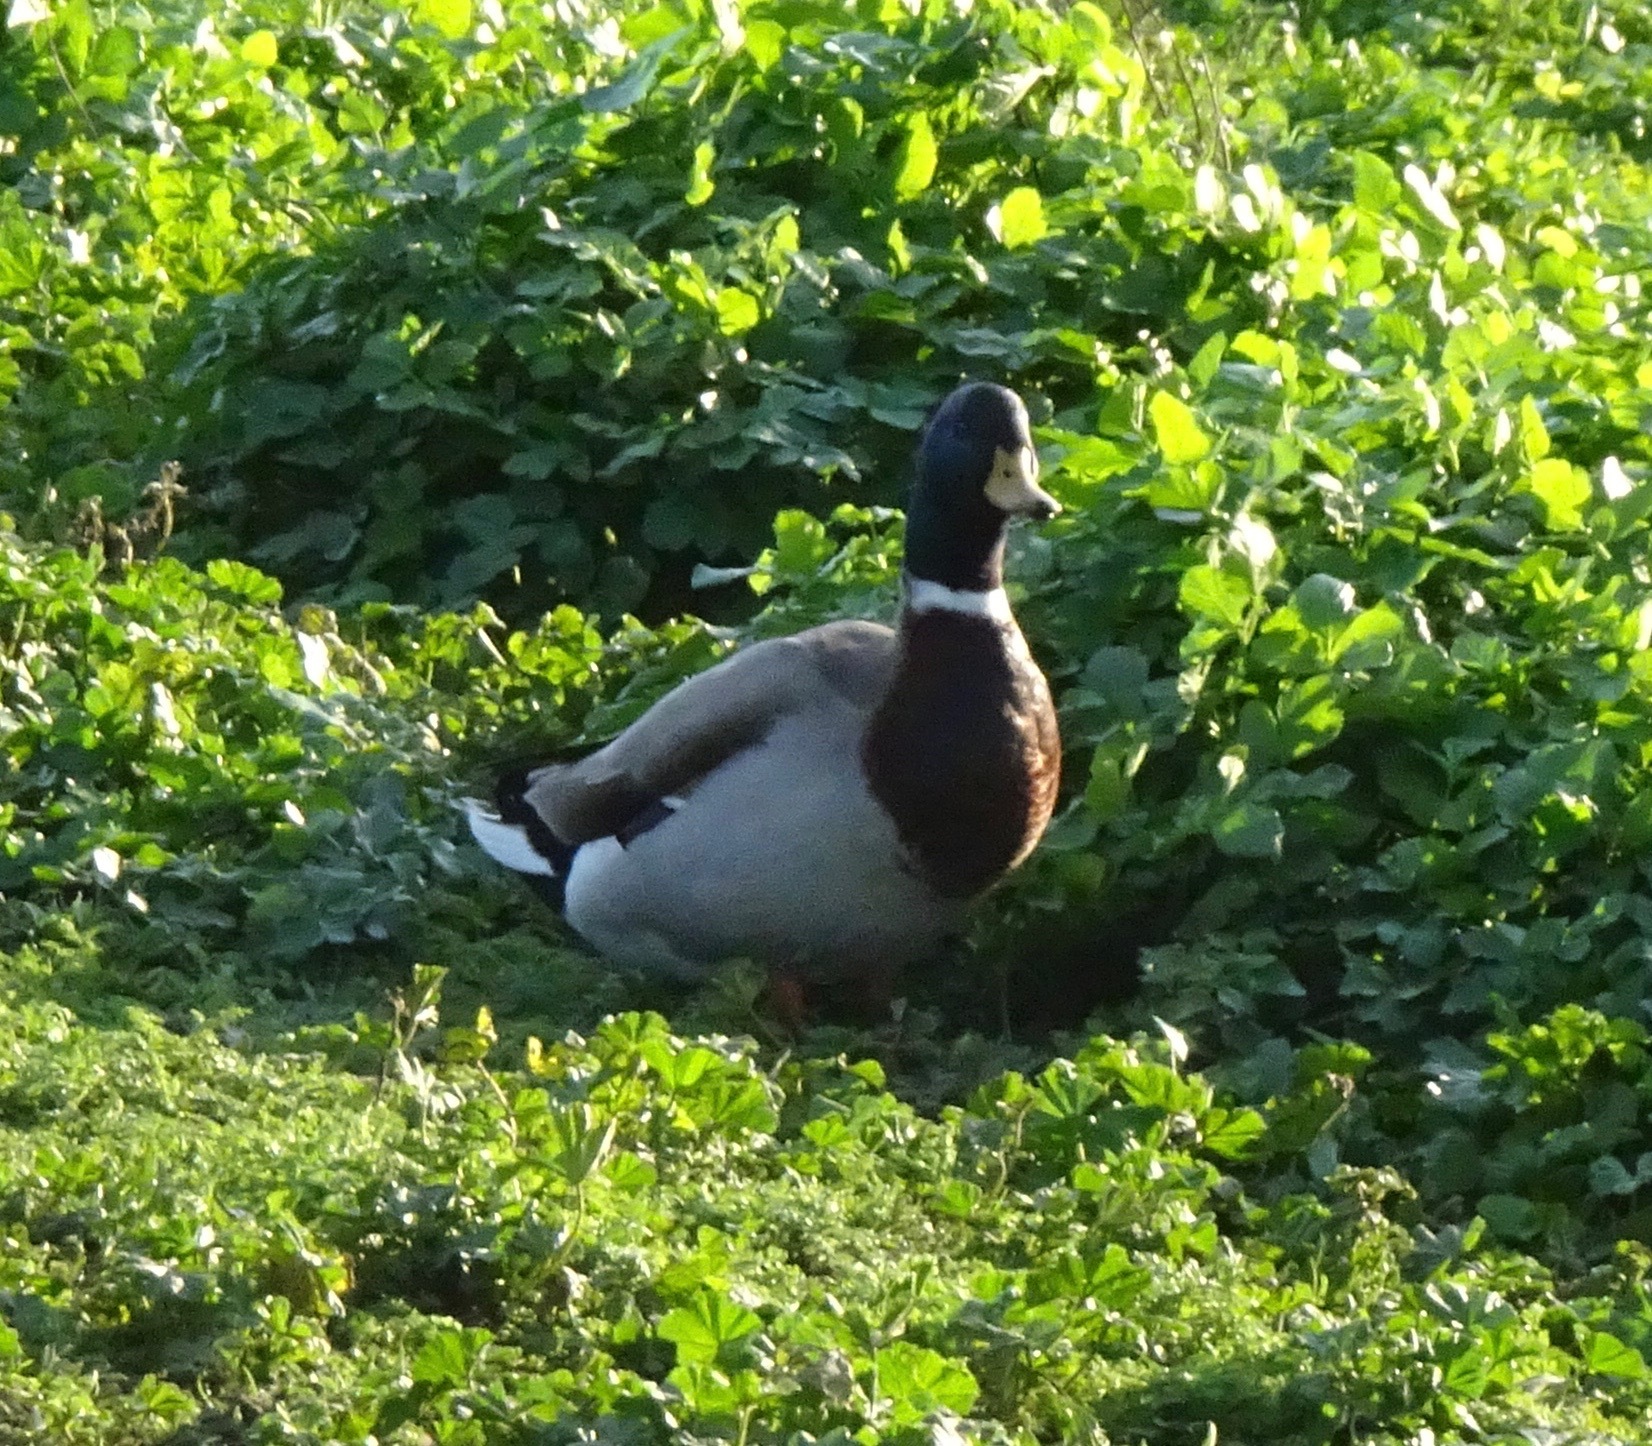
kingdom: Animalia
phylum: Chordata
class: Aves
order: Anseriformes
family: Anatidae
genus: Anas
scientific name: Anas platyrhynchos
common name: Mallard
